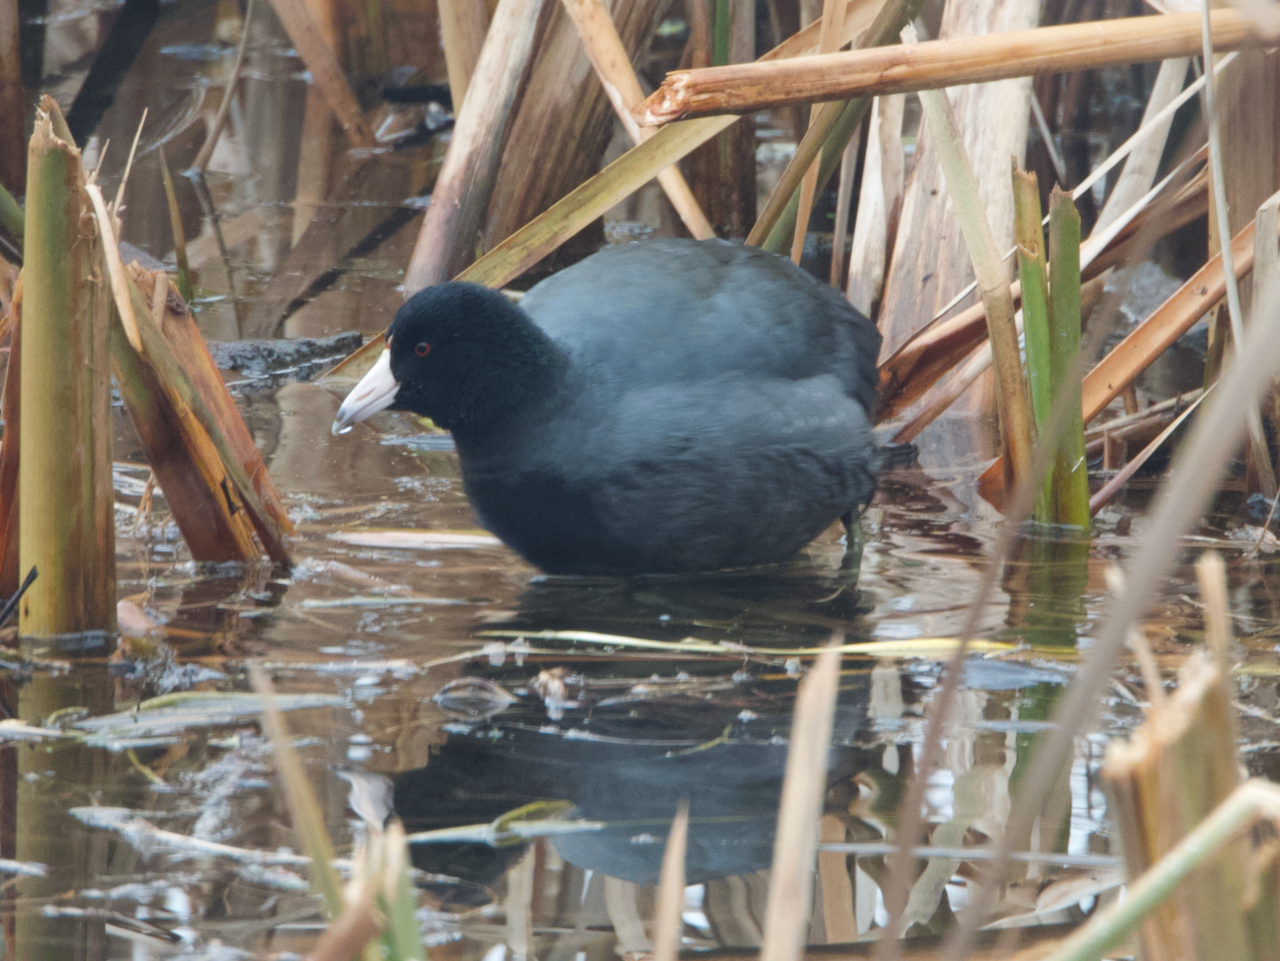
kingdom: Animalia
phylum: Chordata
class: Aves
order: Gruiformes
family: Rallidae
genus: Fulica
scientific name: Fulica americana
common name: American coot
